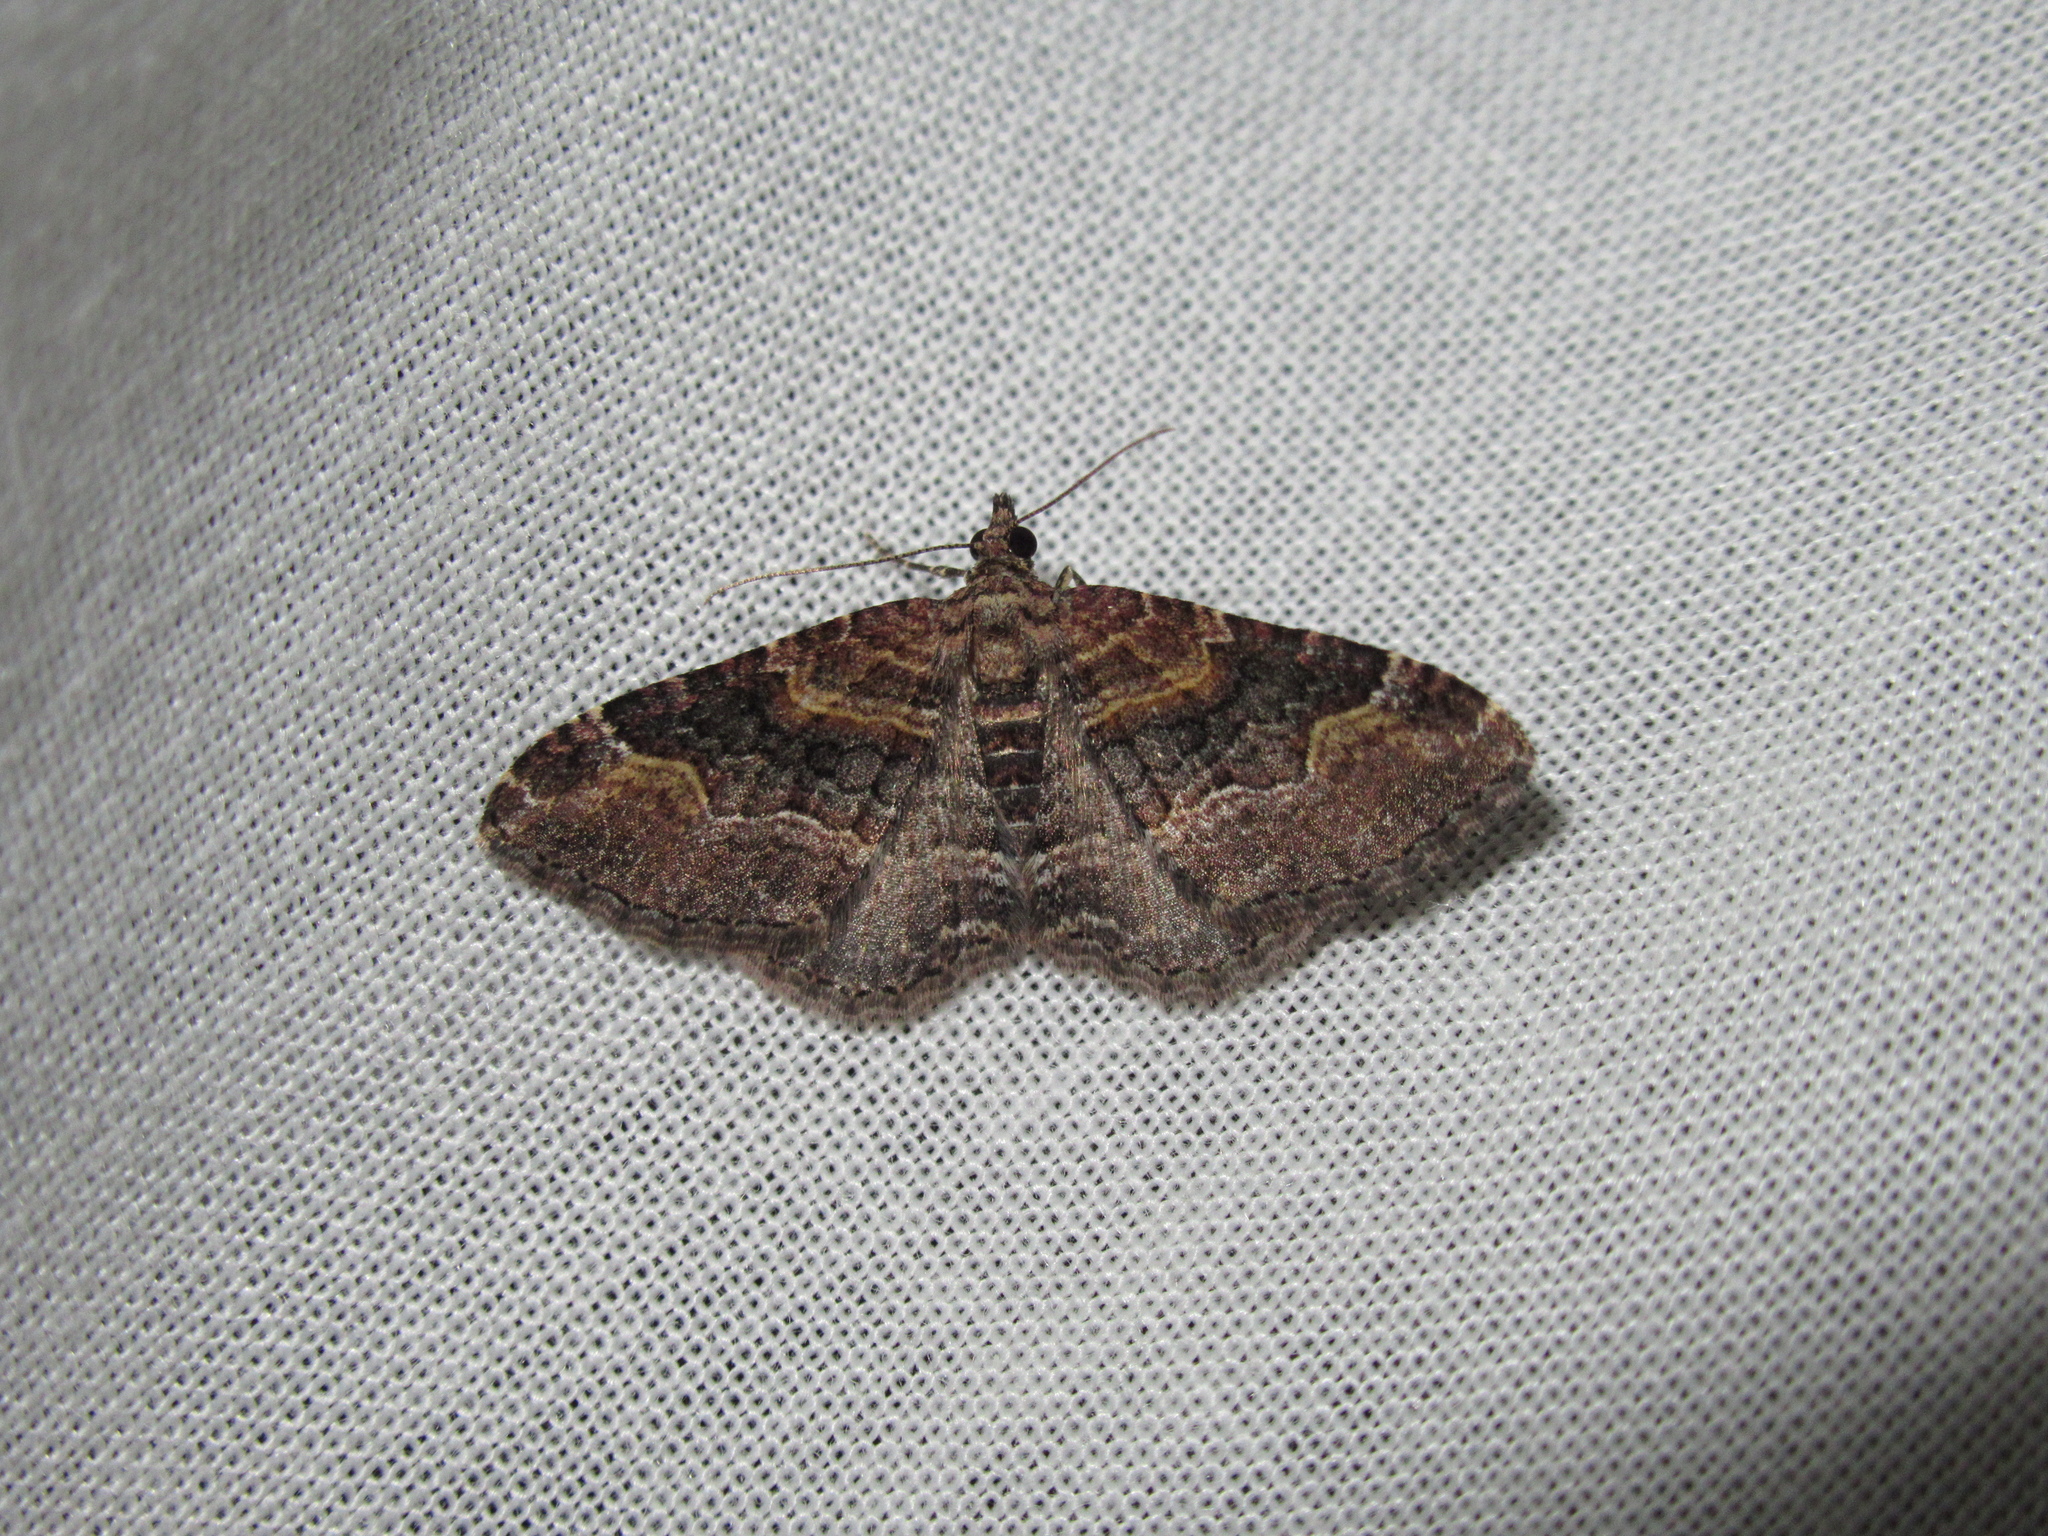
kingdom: Animalia
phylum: Arthropoda
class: Insecta
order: Lepidoptera
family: Geometridae
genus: Epyaxa
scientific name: Epyaxa lucidata
